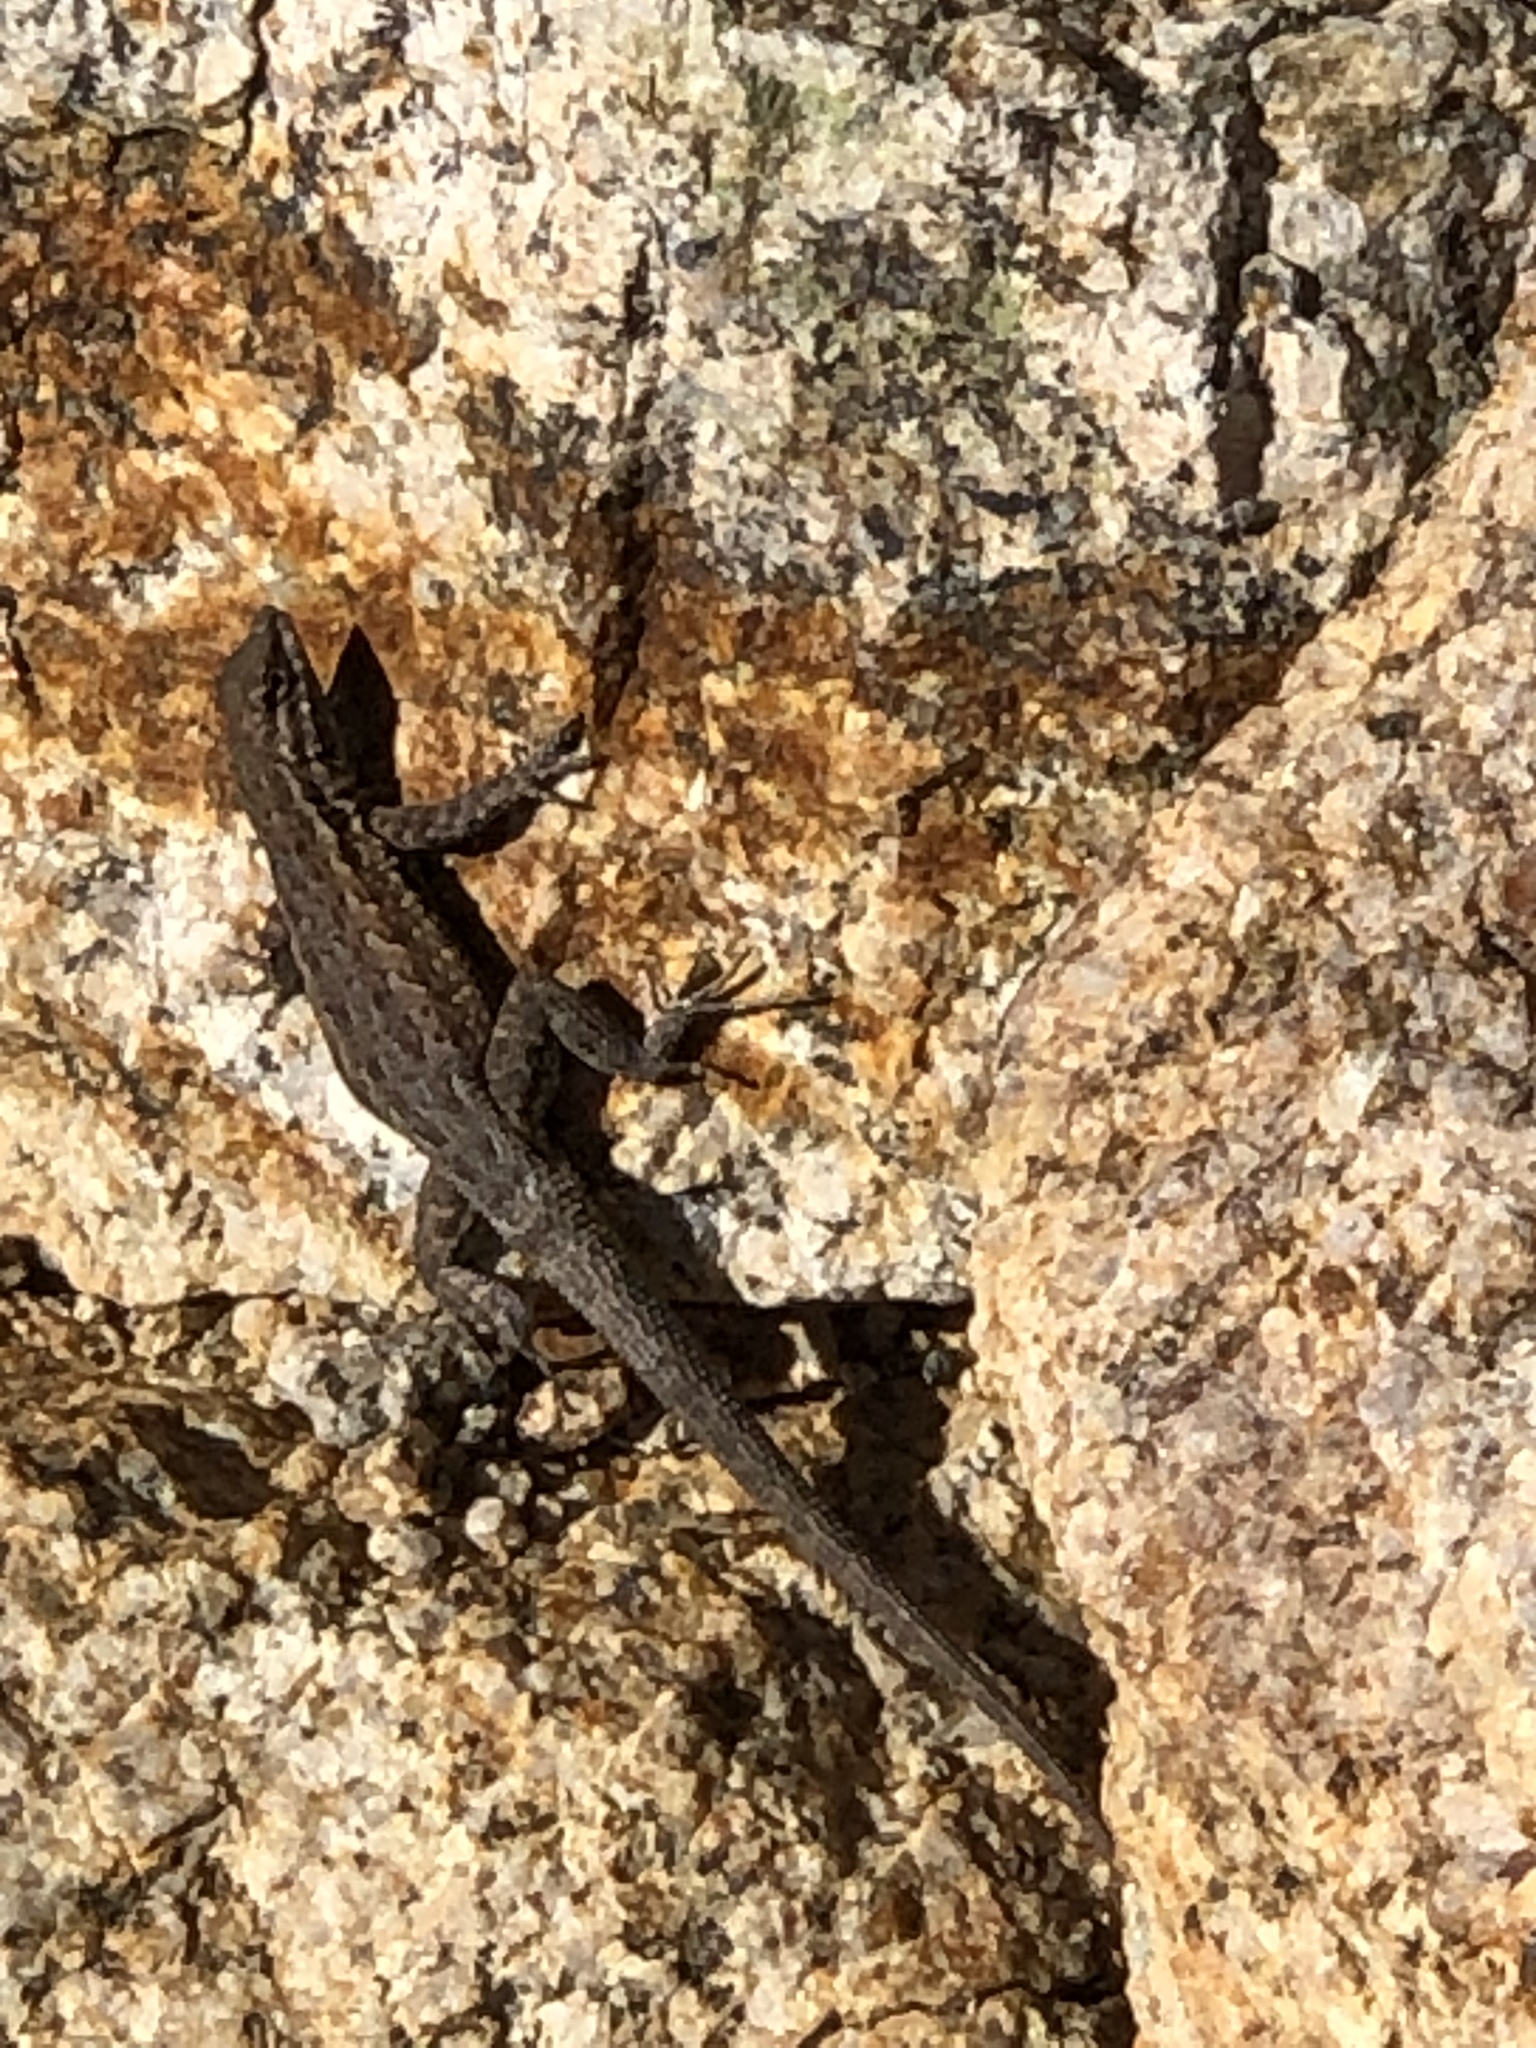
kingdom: Animalia
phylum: Chordata
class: Squamata
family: Phrynosomatidae
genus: Uta
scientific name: Uta stansburiana
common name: Side-blotched lizard
